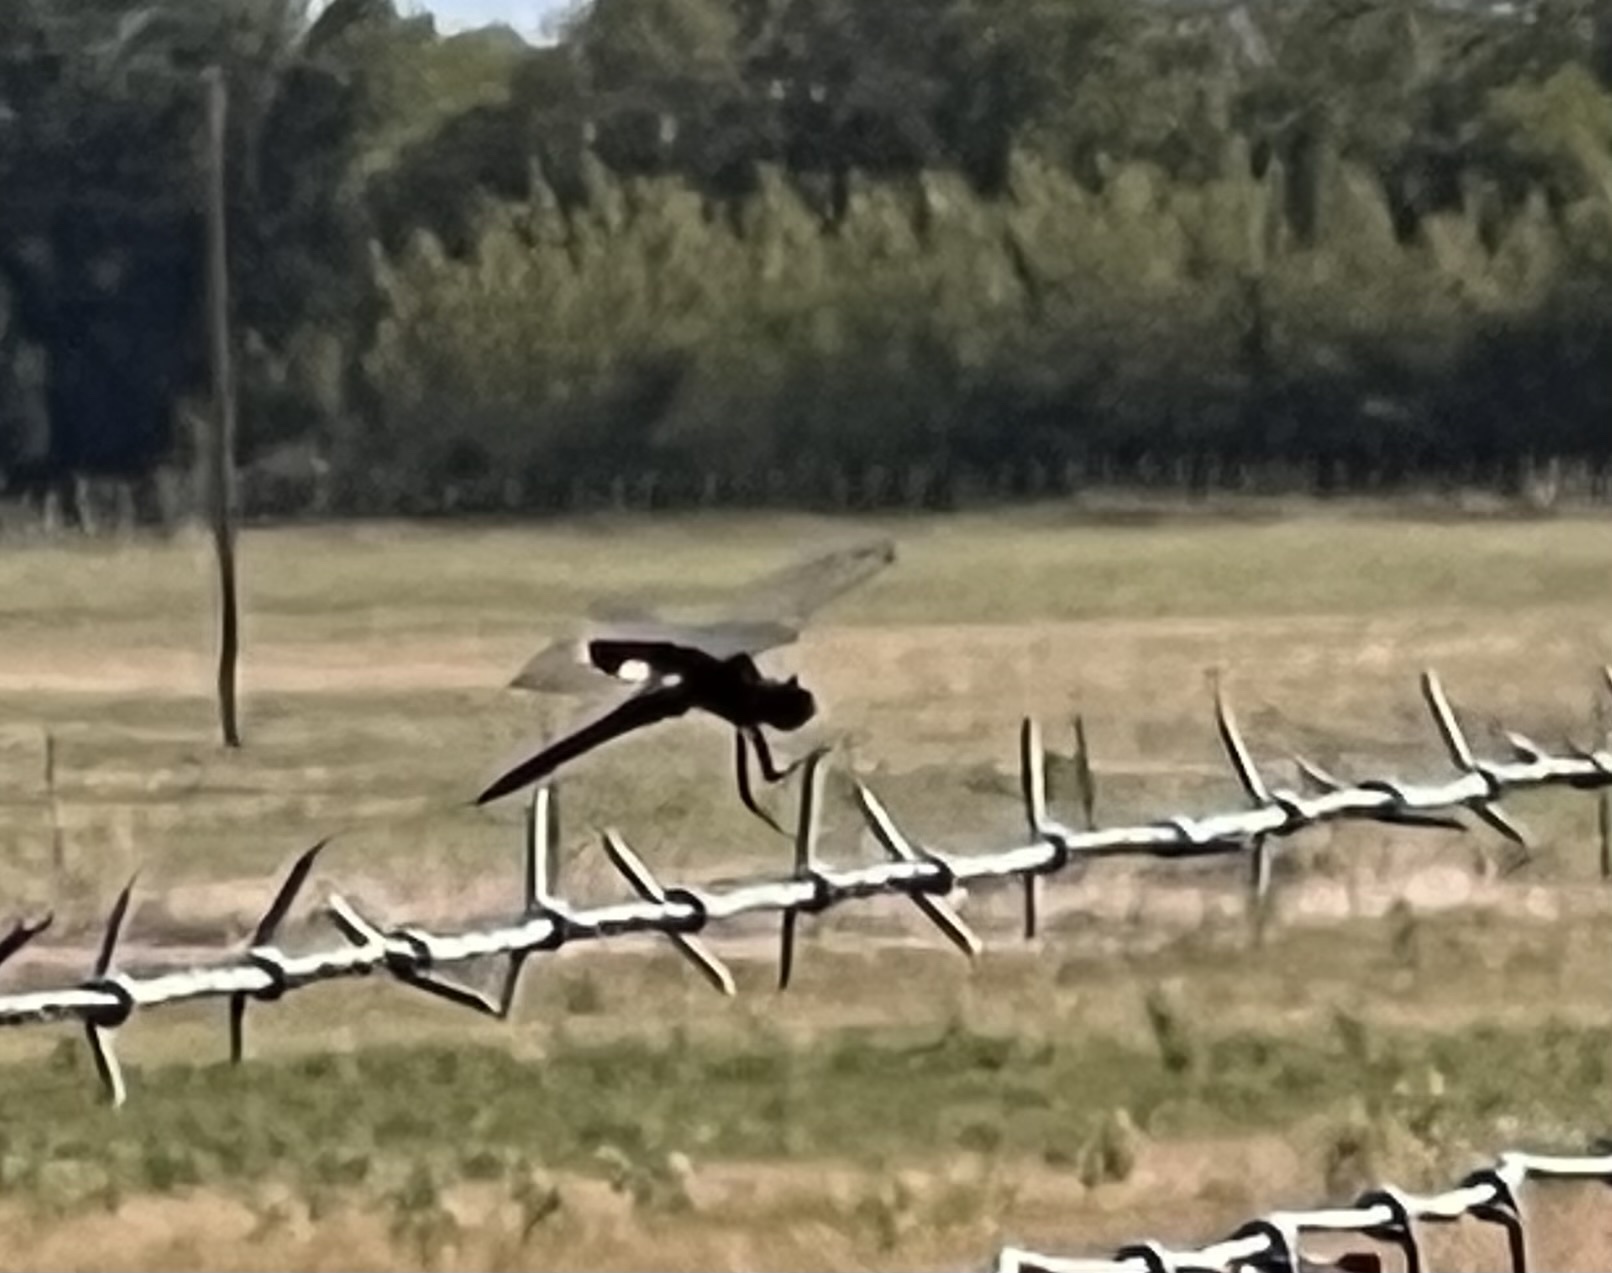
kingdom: Animalia
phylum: Arthropoda
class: Insecta
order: Odonata
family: Libellulidae
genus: Tramea
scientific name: Tramea lacerata
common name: Black saddlebags
